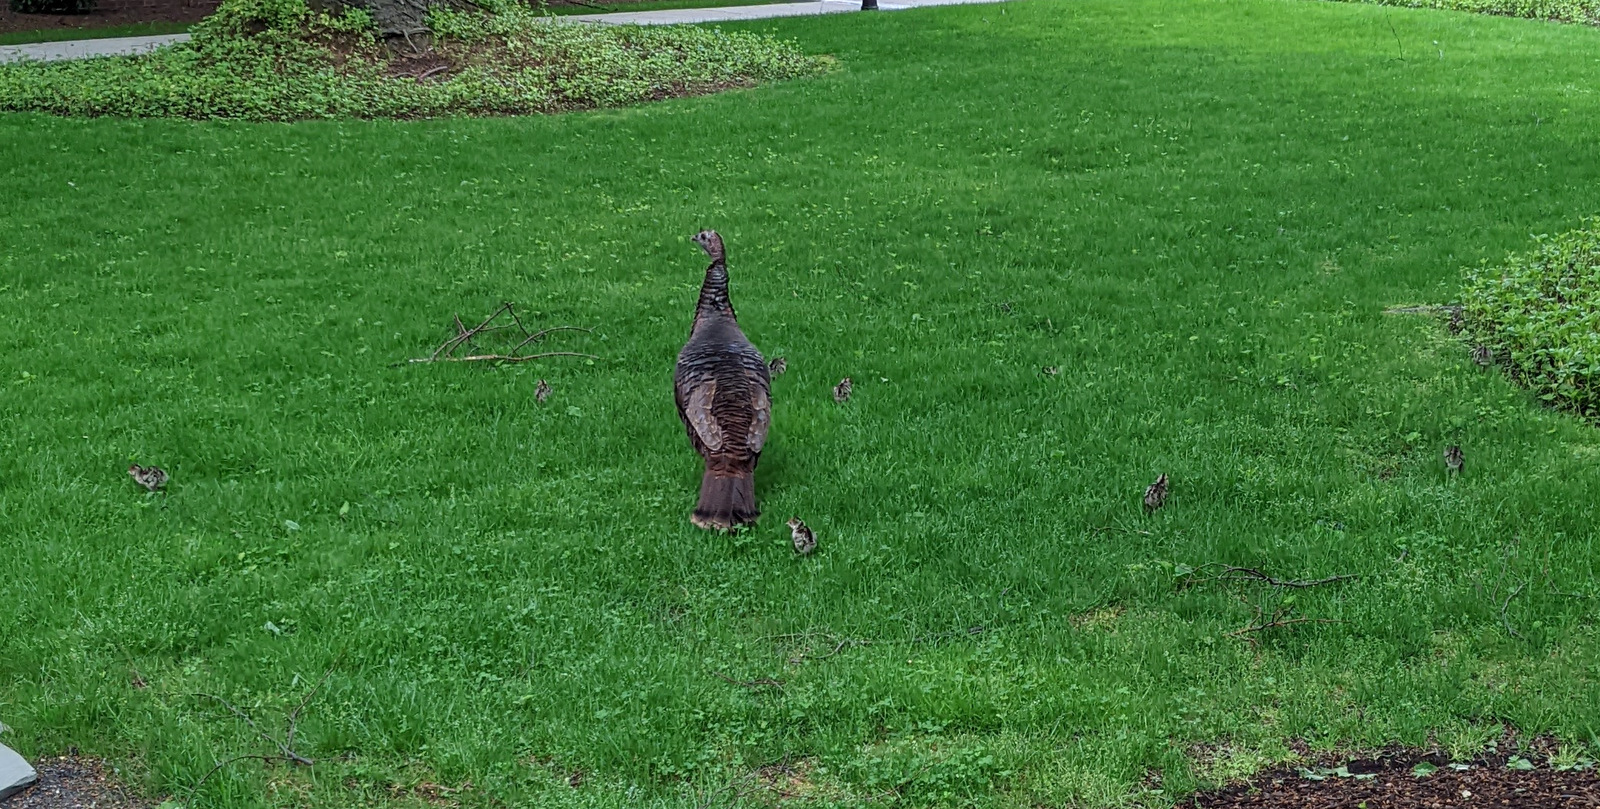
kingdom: Animalia
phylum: Chordata
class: Aves
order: Galliformes
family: Phasianidae
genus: Meleagris
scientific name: Meleagris gallopavo
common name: Wild turkey
